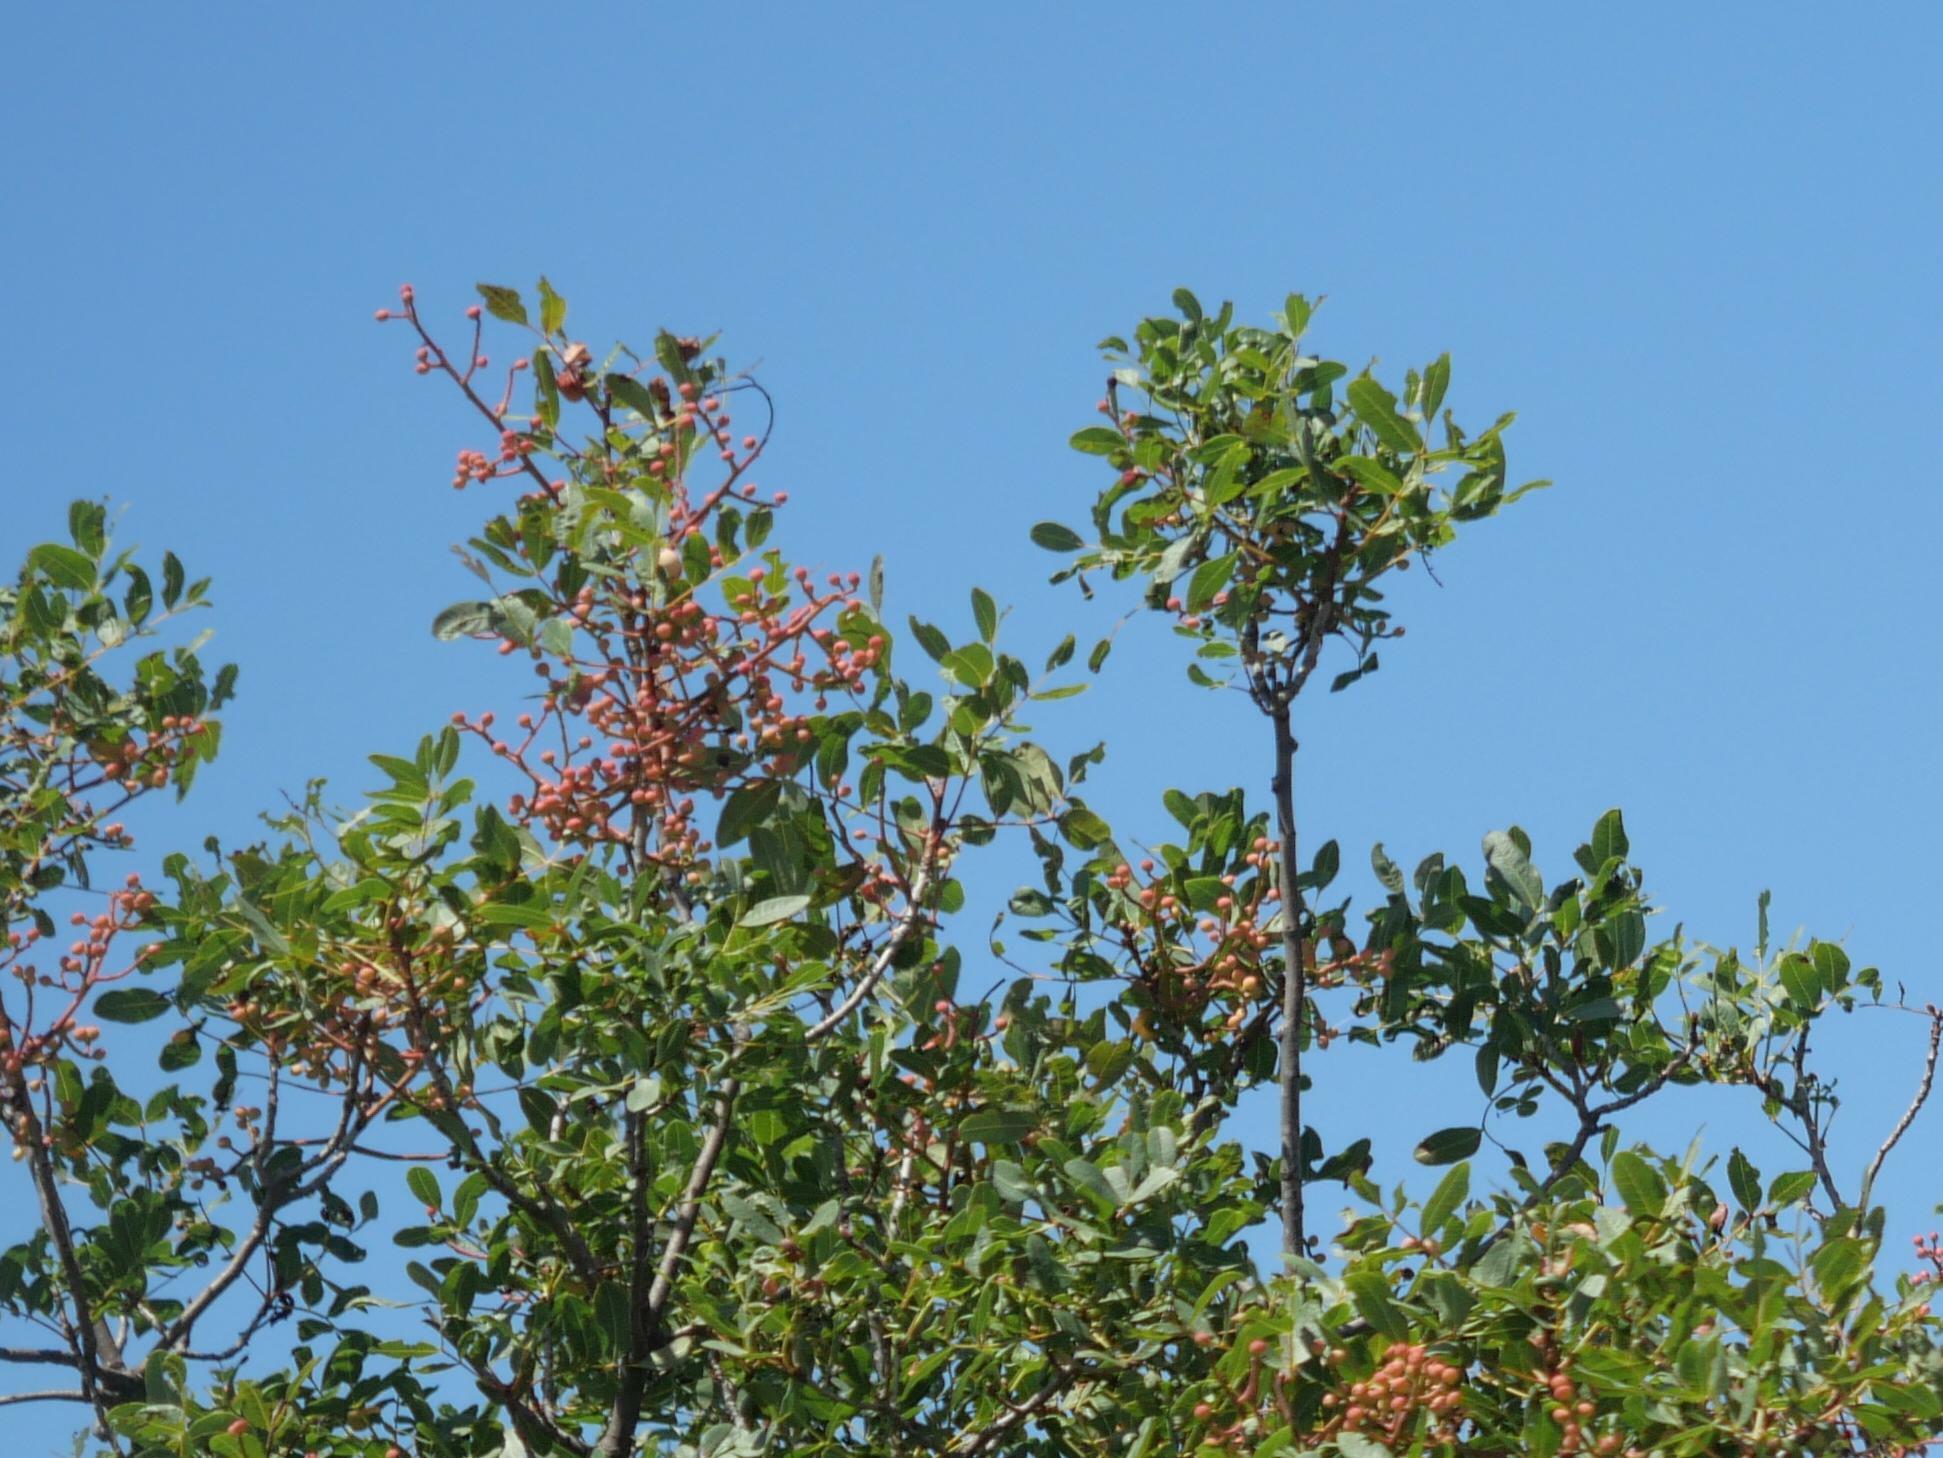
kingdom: Plantae
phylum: Tracheophyta
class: Magnoliopsida
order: Sapindales
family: Anacardiaceae
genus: Pistacia
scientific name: Pistacia terebinthus
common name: Terebinth
